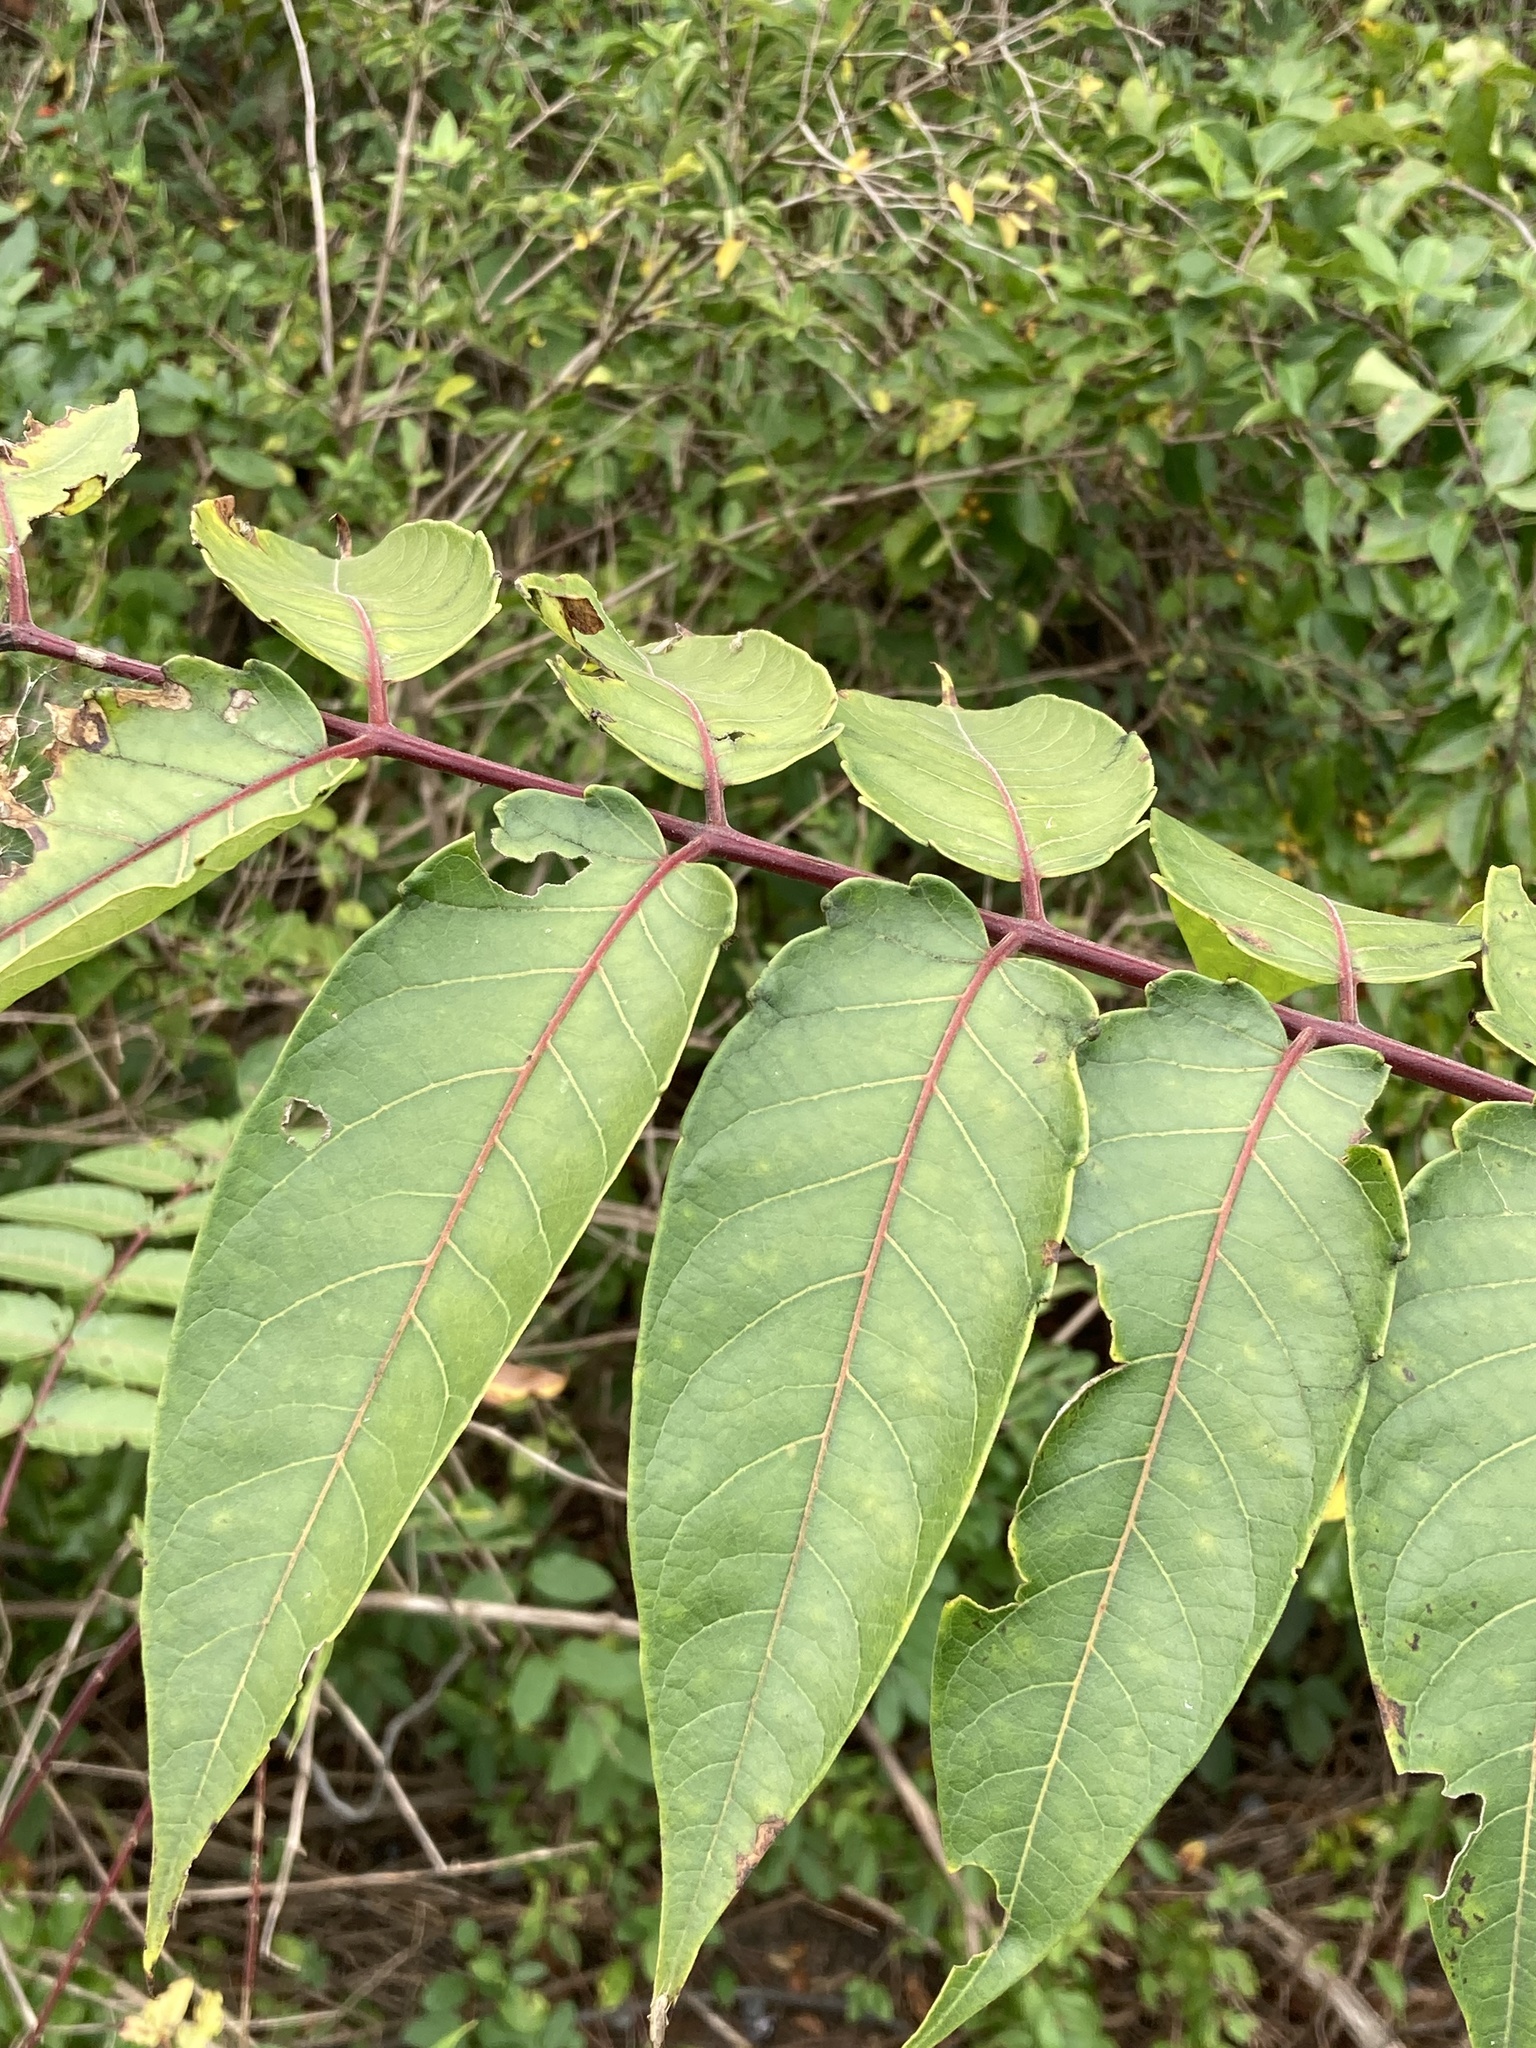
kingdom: Plantae
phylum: Tracheophyta
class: Magnoliopsida
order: Sapindales
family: Simaroubaceae
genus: Ailanthus
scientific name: Ailanthus altissima
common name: Tree-of-heaven
